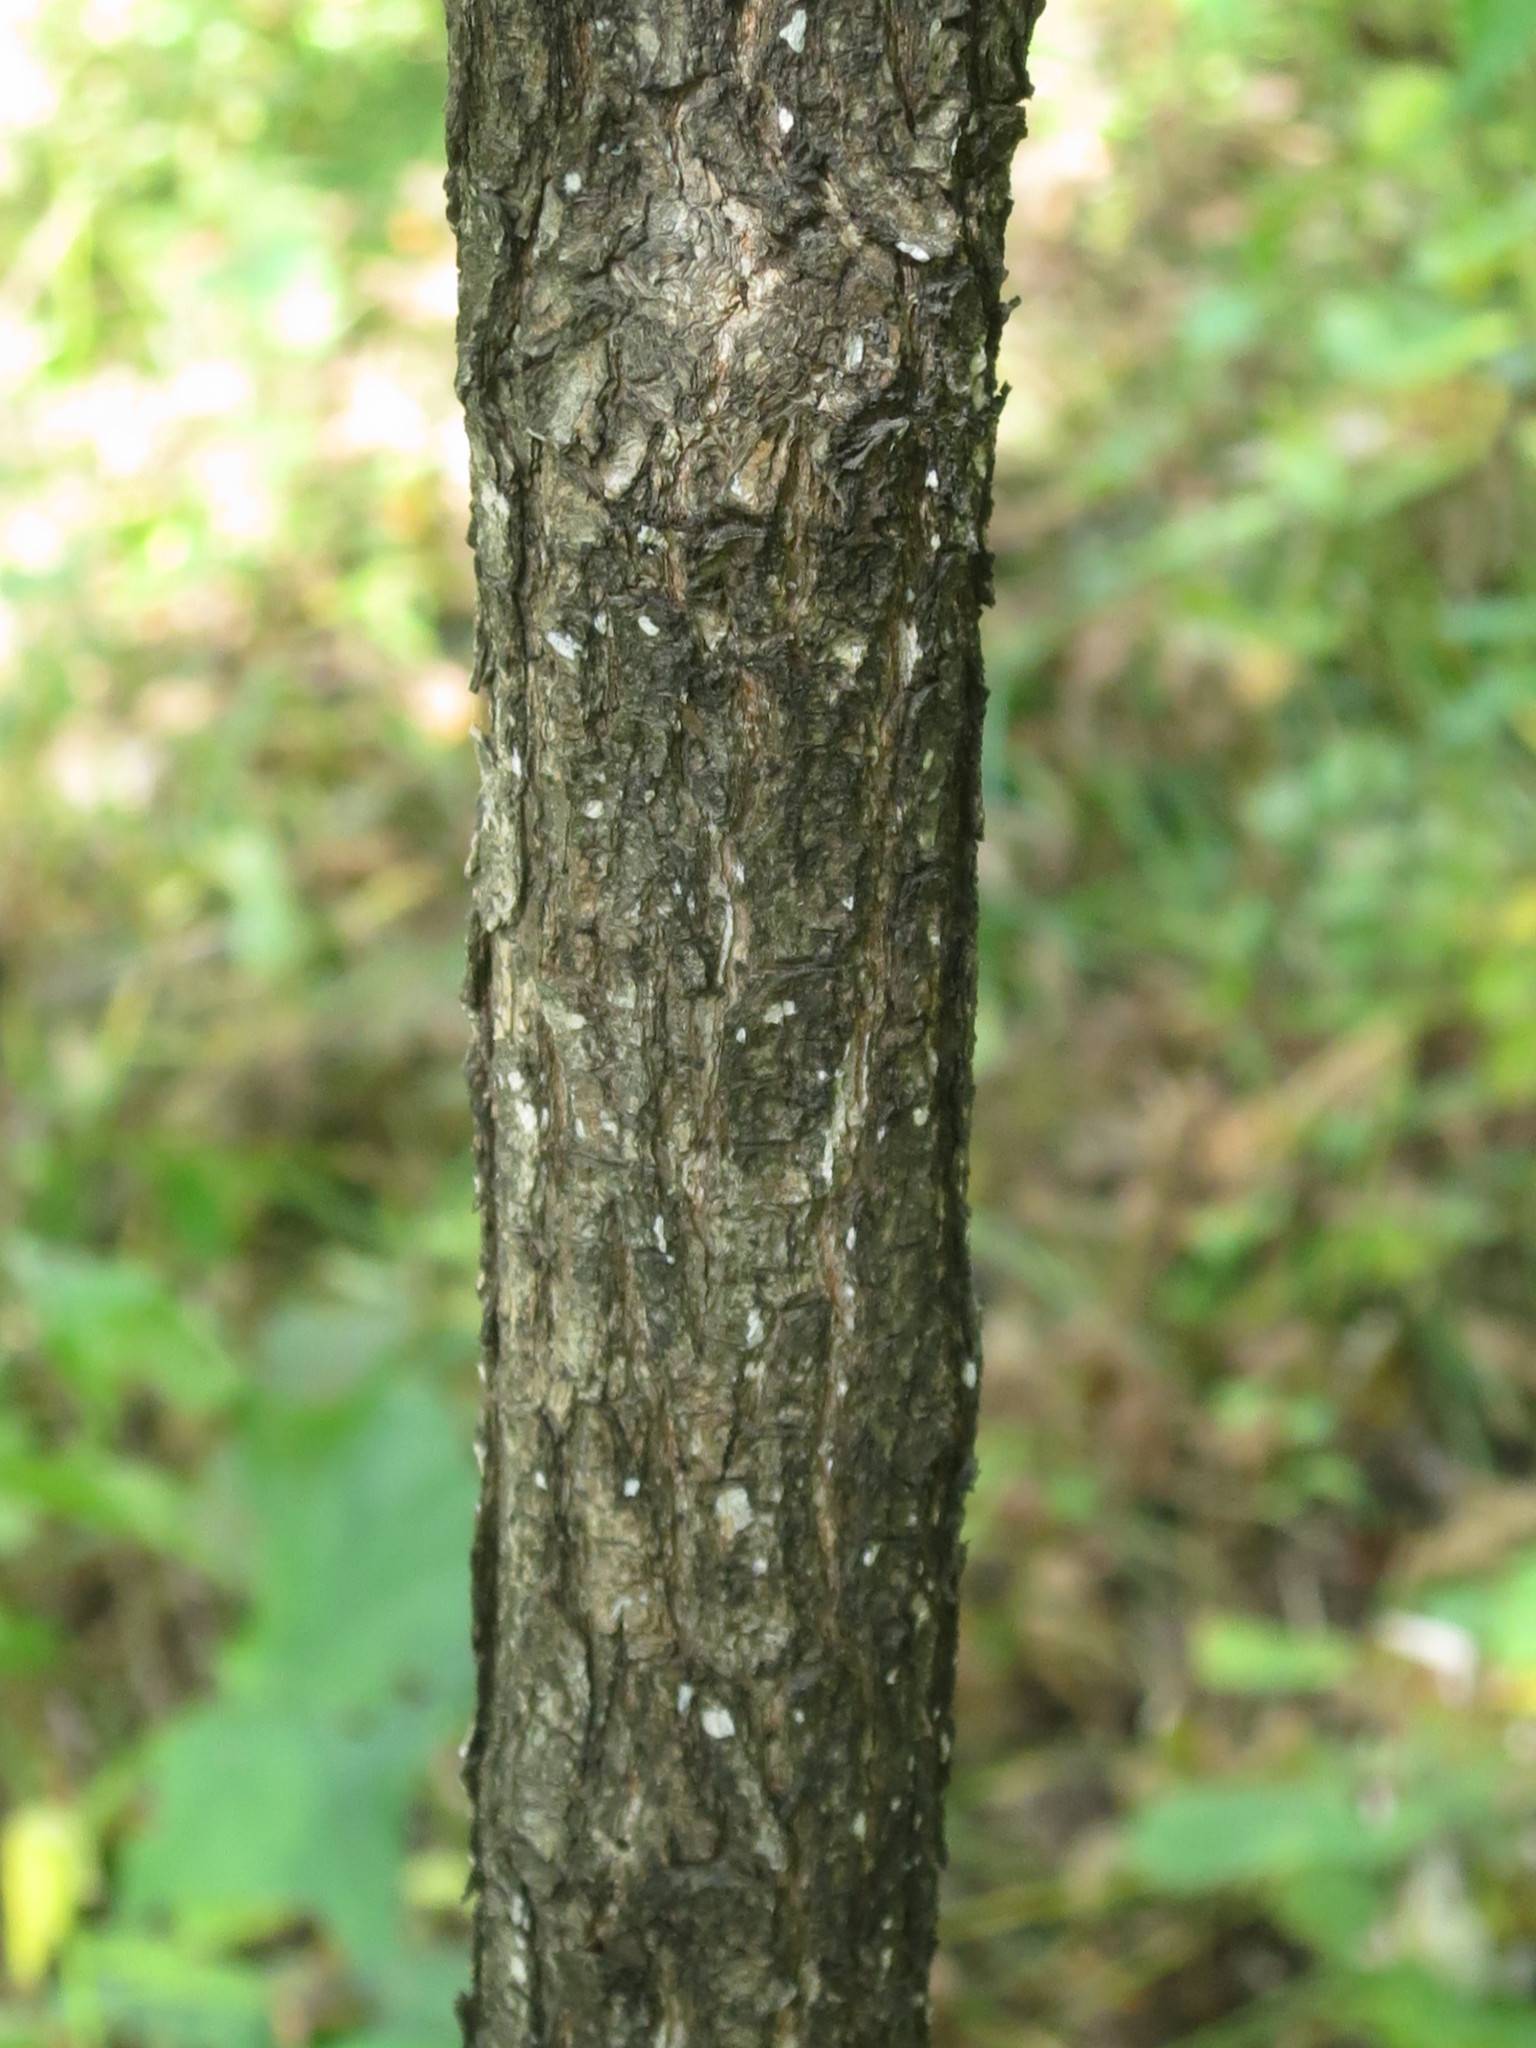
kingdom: Plantae
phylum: Tracheophyta
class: Magnoliopsida
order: Malpighiales
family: Phyllanthaceae
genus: Flueggea
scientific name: Flueggea suffruticosa
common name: Arching bushweed
